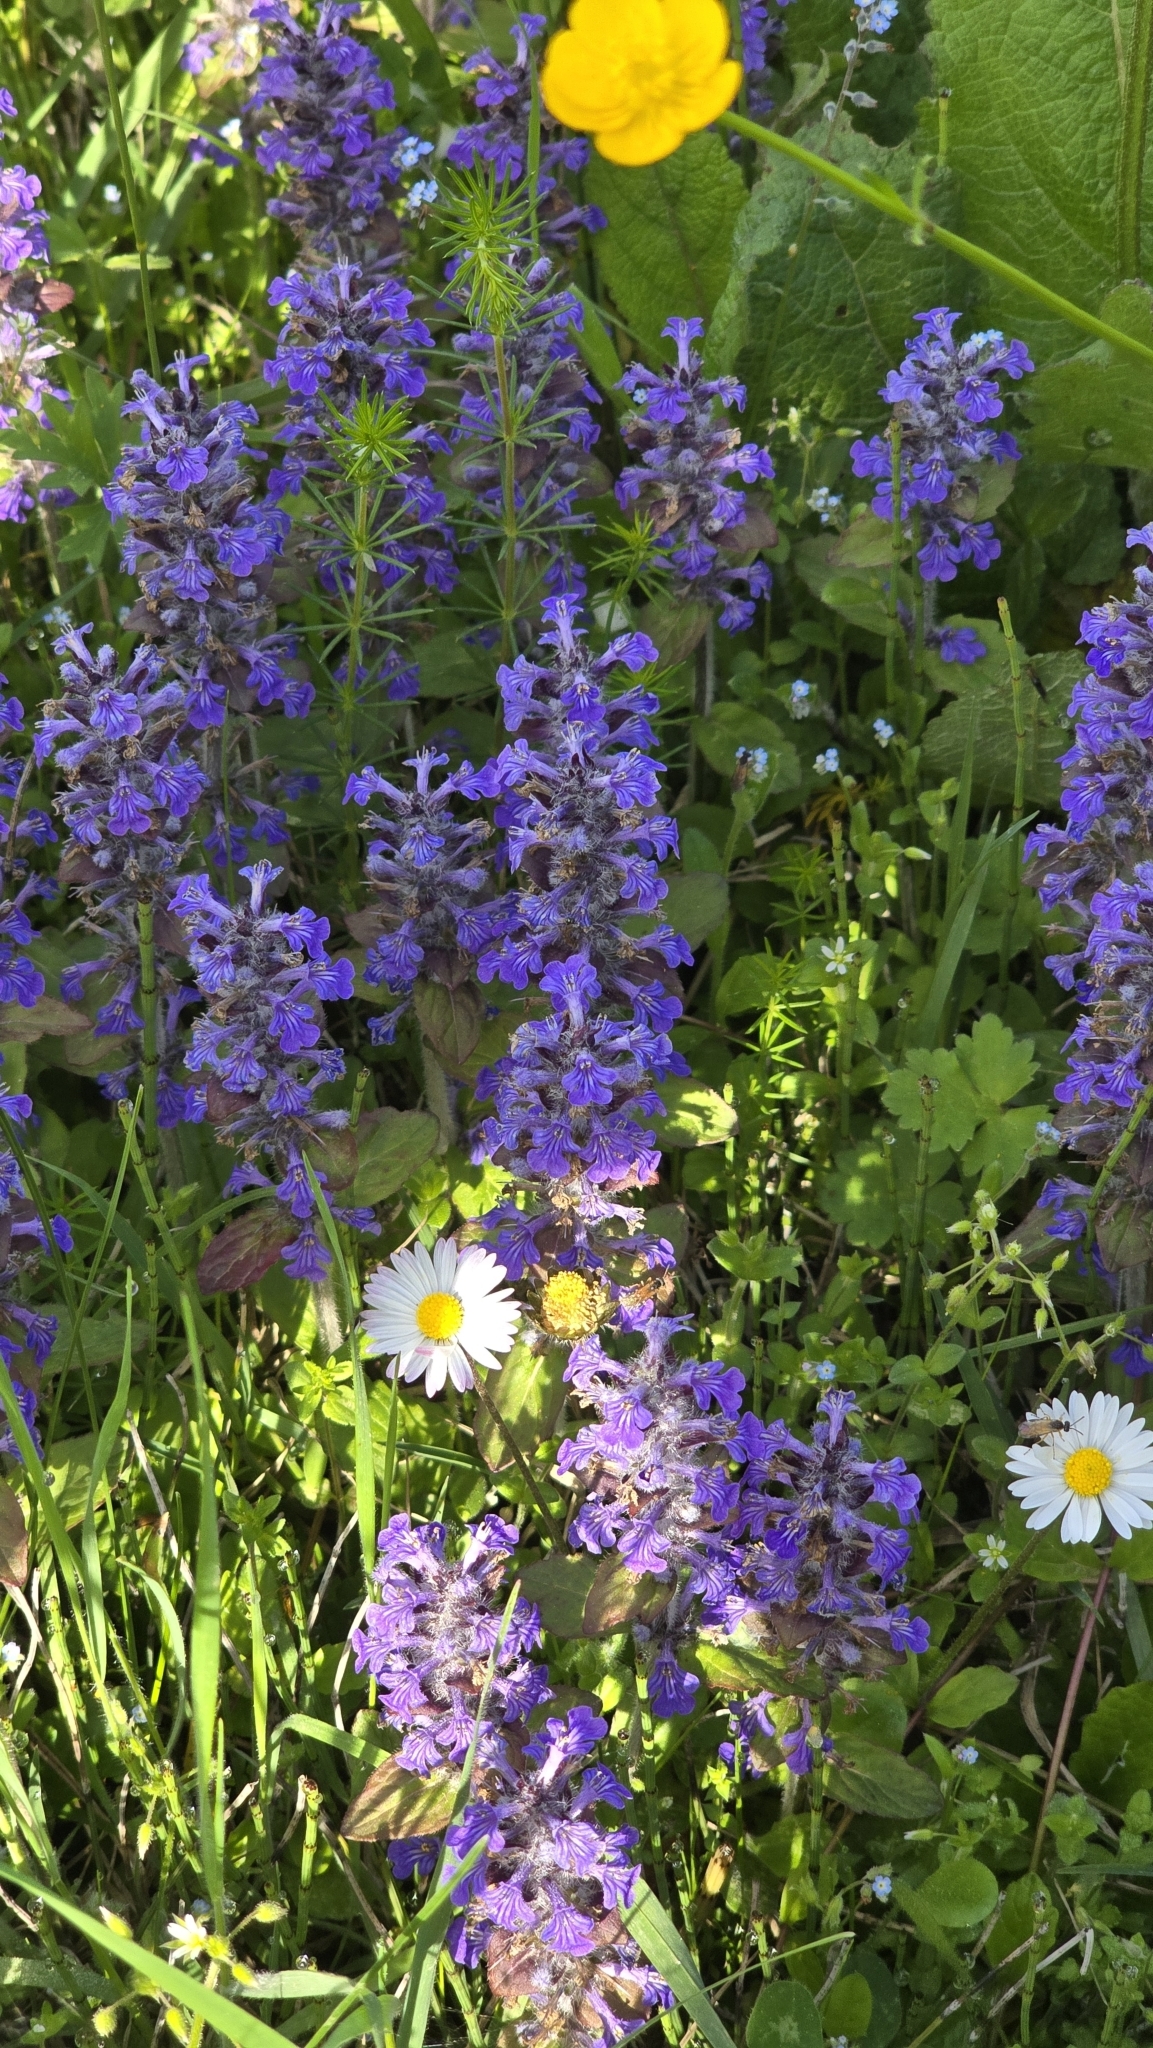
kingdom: Plantae
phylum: Tracheophyta
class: Magnoliopsida
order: Lamiales
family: Lamiaceae
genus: Ajuga
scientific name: Ajuga reptans
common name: Bugle
